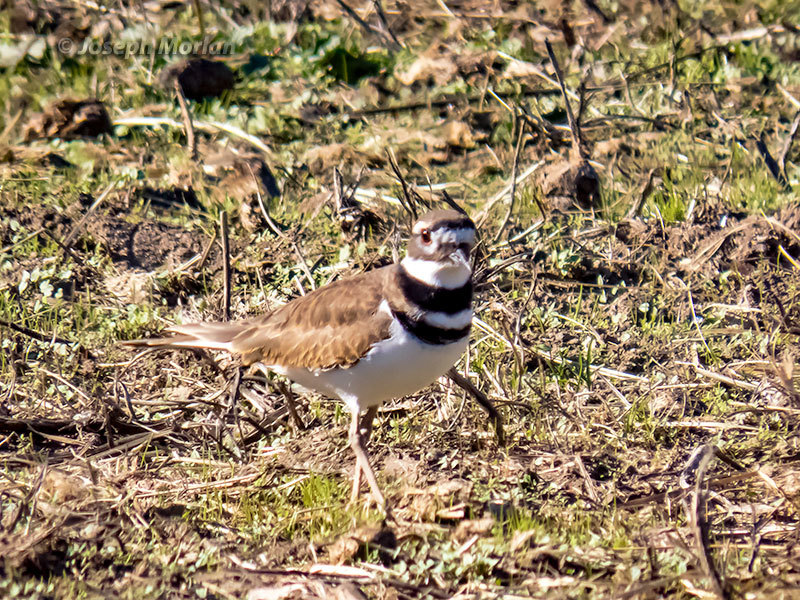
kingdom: Animalia
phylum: Chordata
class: Aves
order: Charadriiformes
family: Charadriidae
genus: Charadrius
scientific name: Charadrius vociferus
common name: Killdeer
